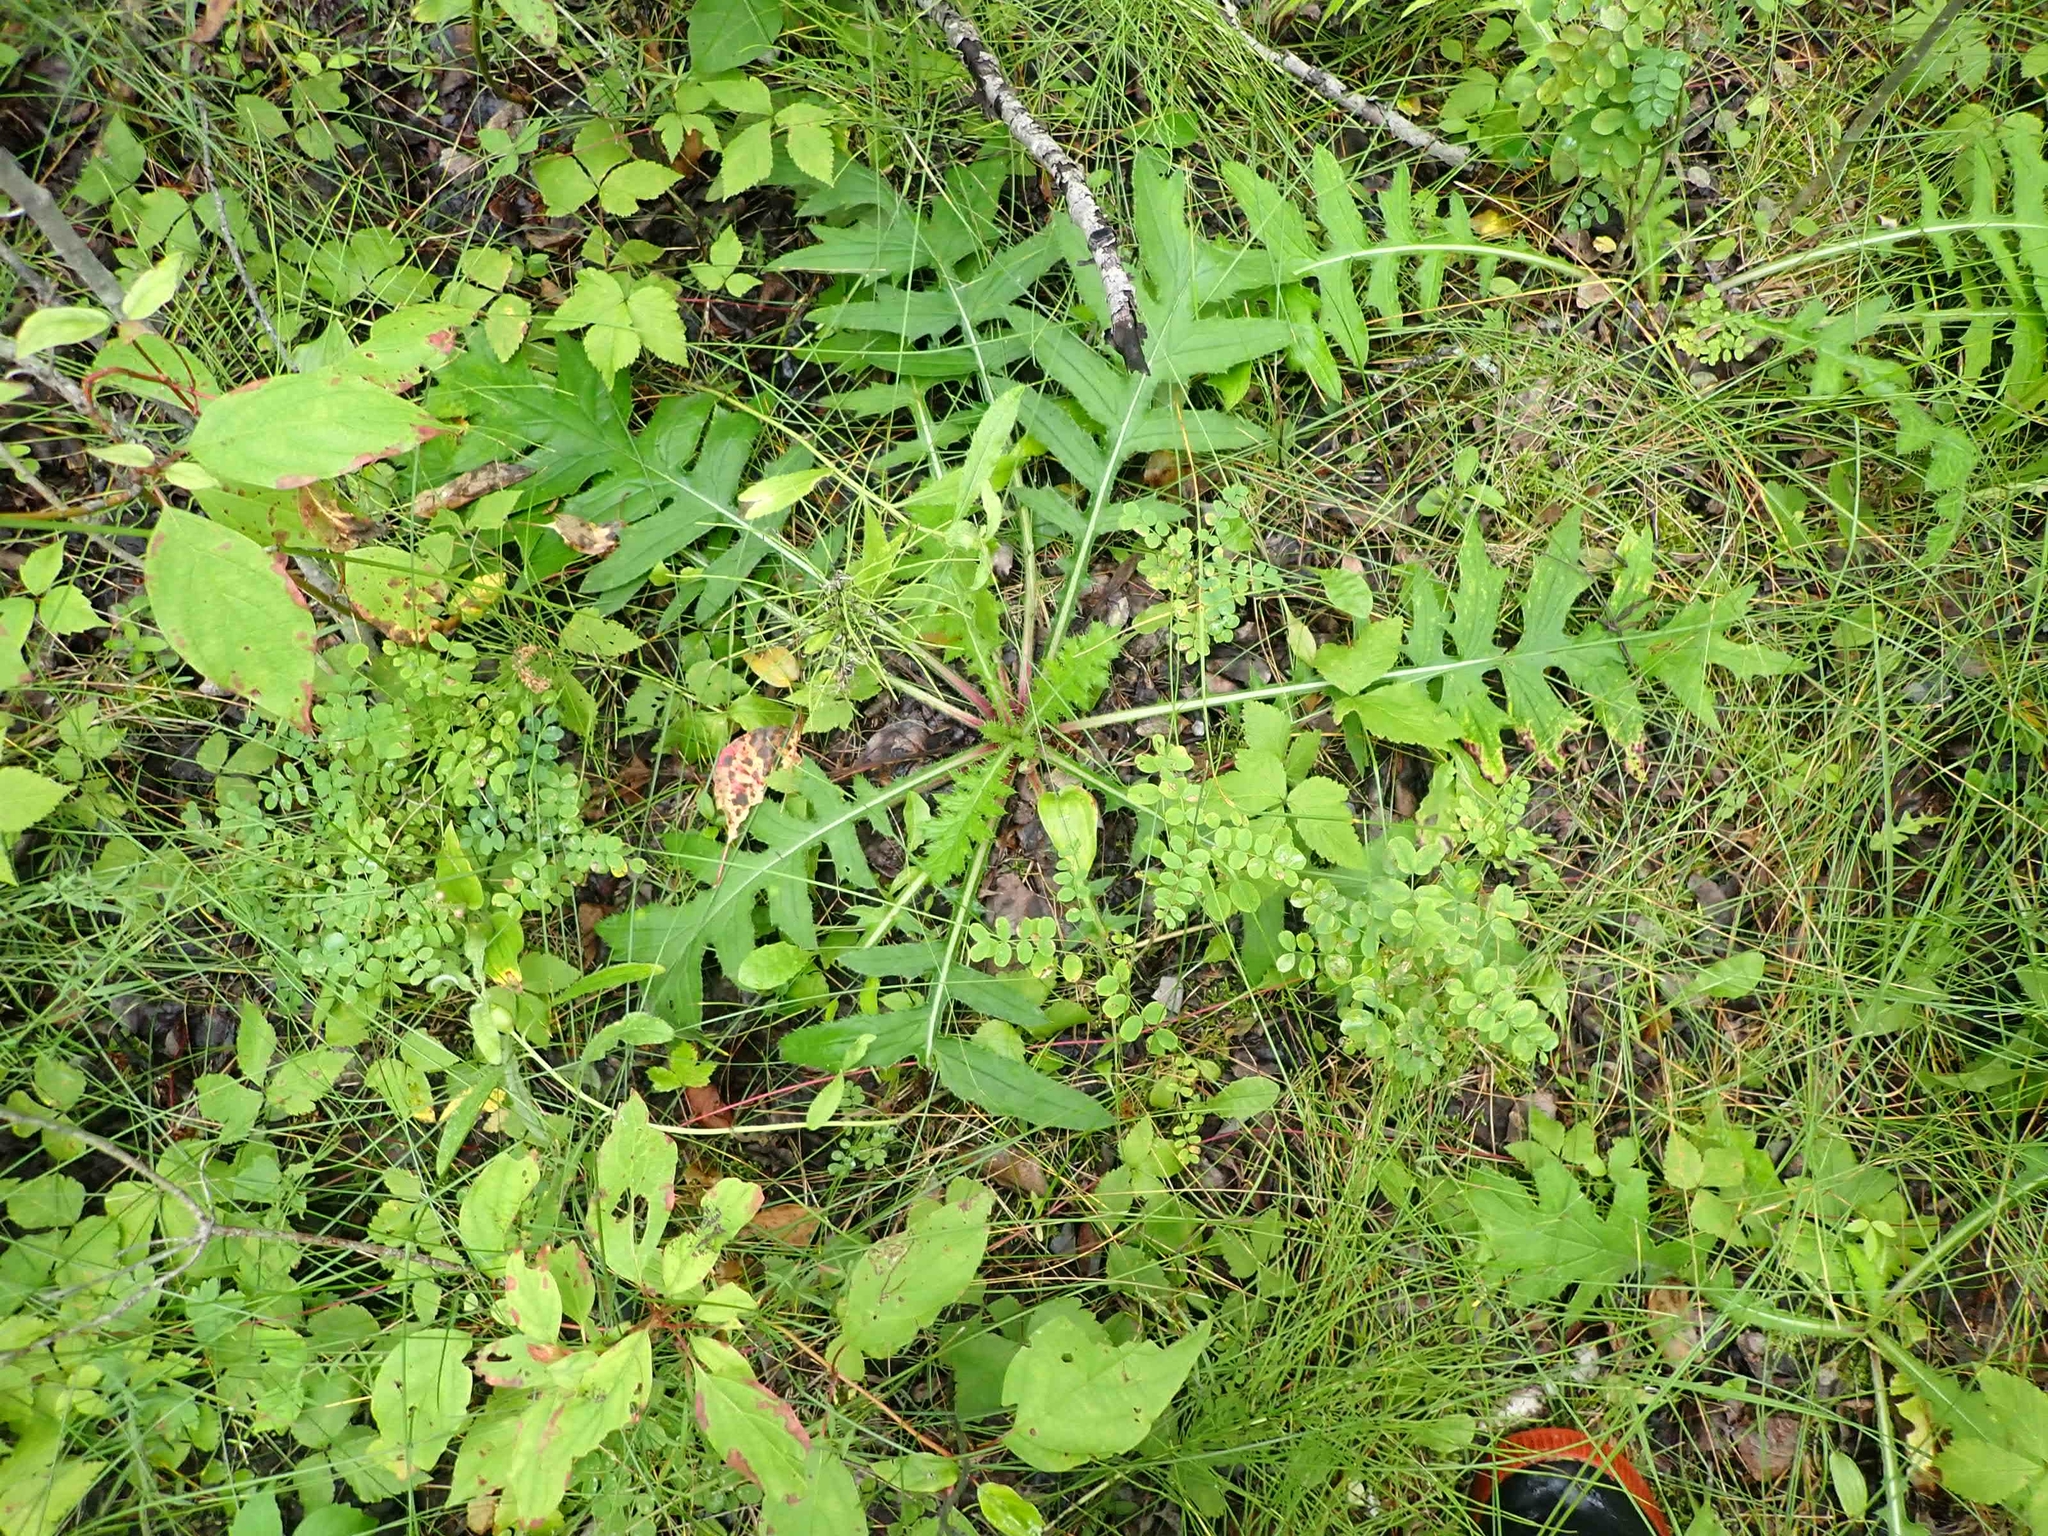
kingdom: Plantae
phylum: Tracheophyta
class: Magnoliopsida
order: Asterales
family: Asteraceae
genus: Cirsium
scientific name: Cirsium muticum
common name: Dunce-nettle
